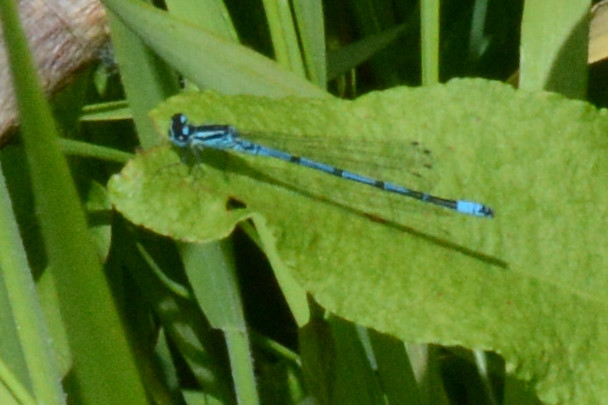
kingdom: Animalia
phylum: Arthropoda
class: Insecta
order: Odonata
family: Coenagrionidae
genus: Coenagrion
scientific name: Coenagrion puella
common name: Azure damselfly
